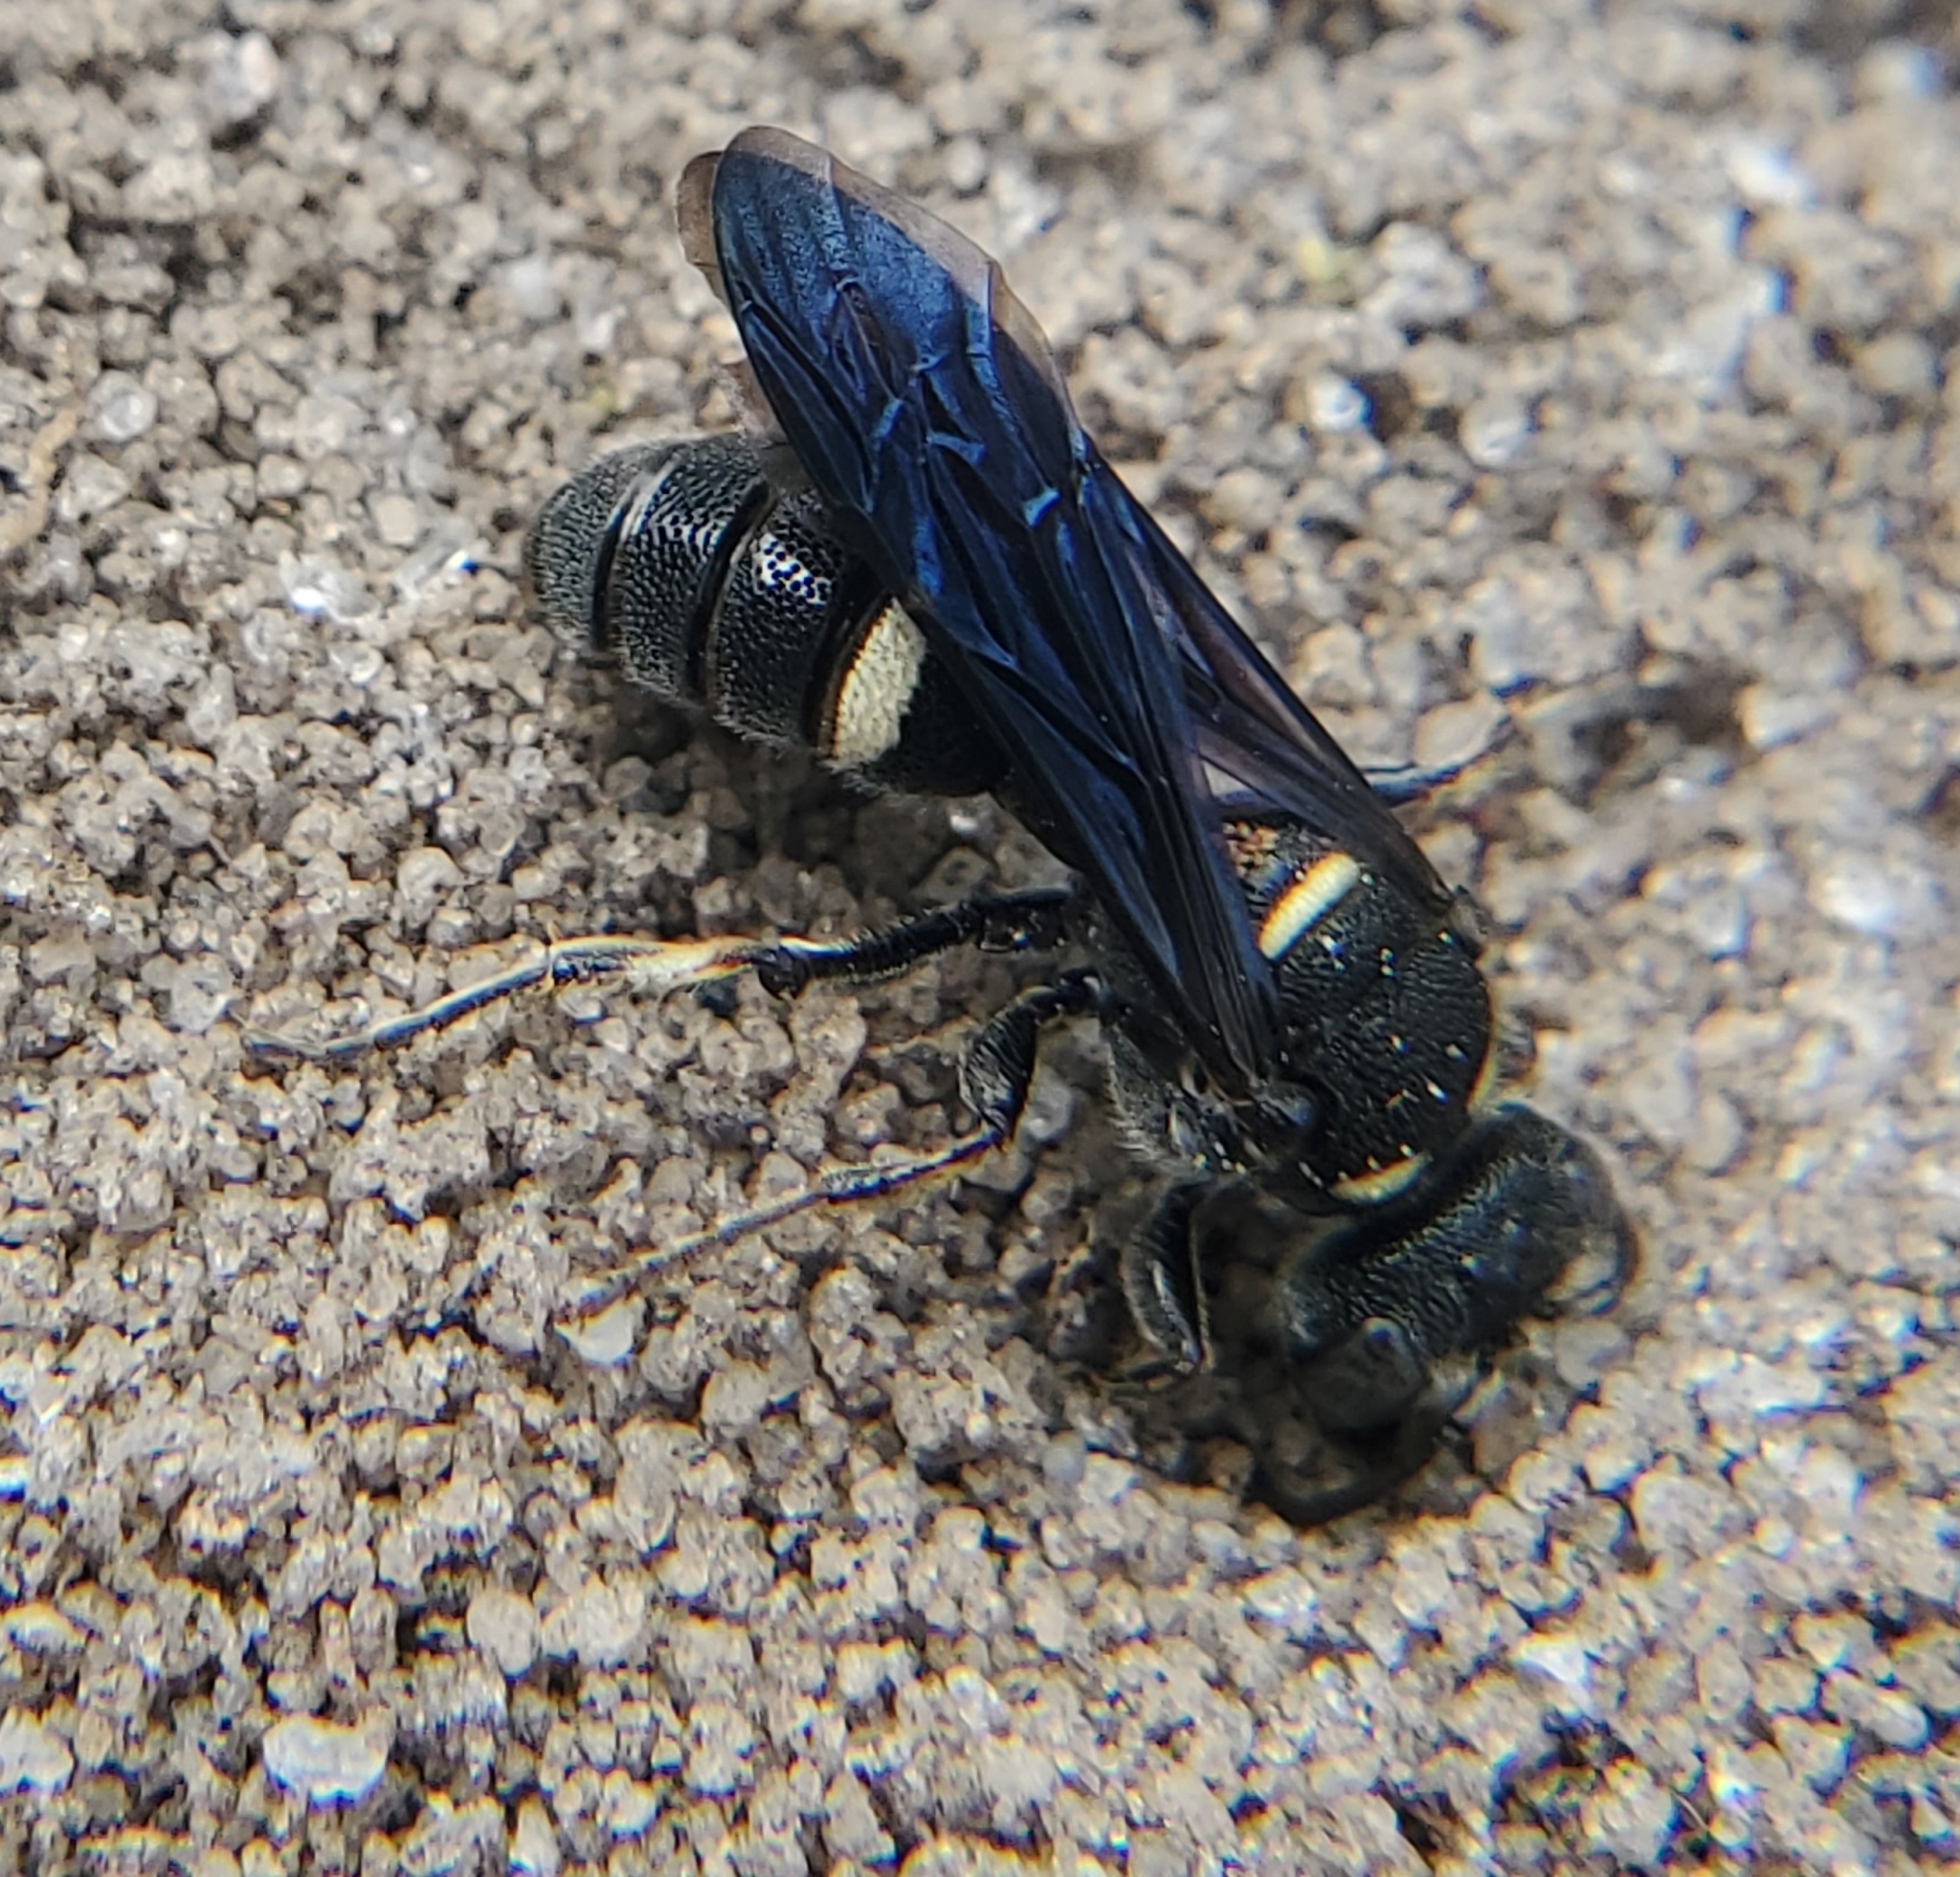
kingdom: Animalia
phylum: Arthropoda
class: Insecta
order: Hymenoptera
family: Crabronidae
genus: Cerceris
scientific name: Cerceris fumipennis
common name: Smokey-winged beetle bandit wasp
